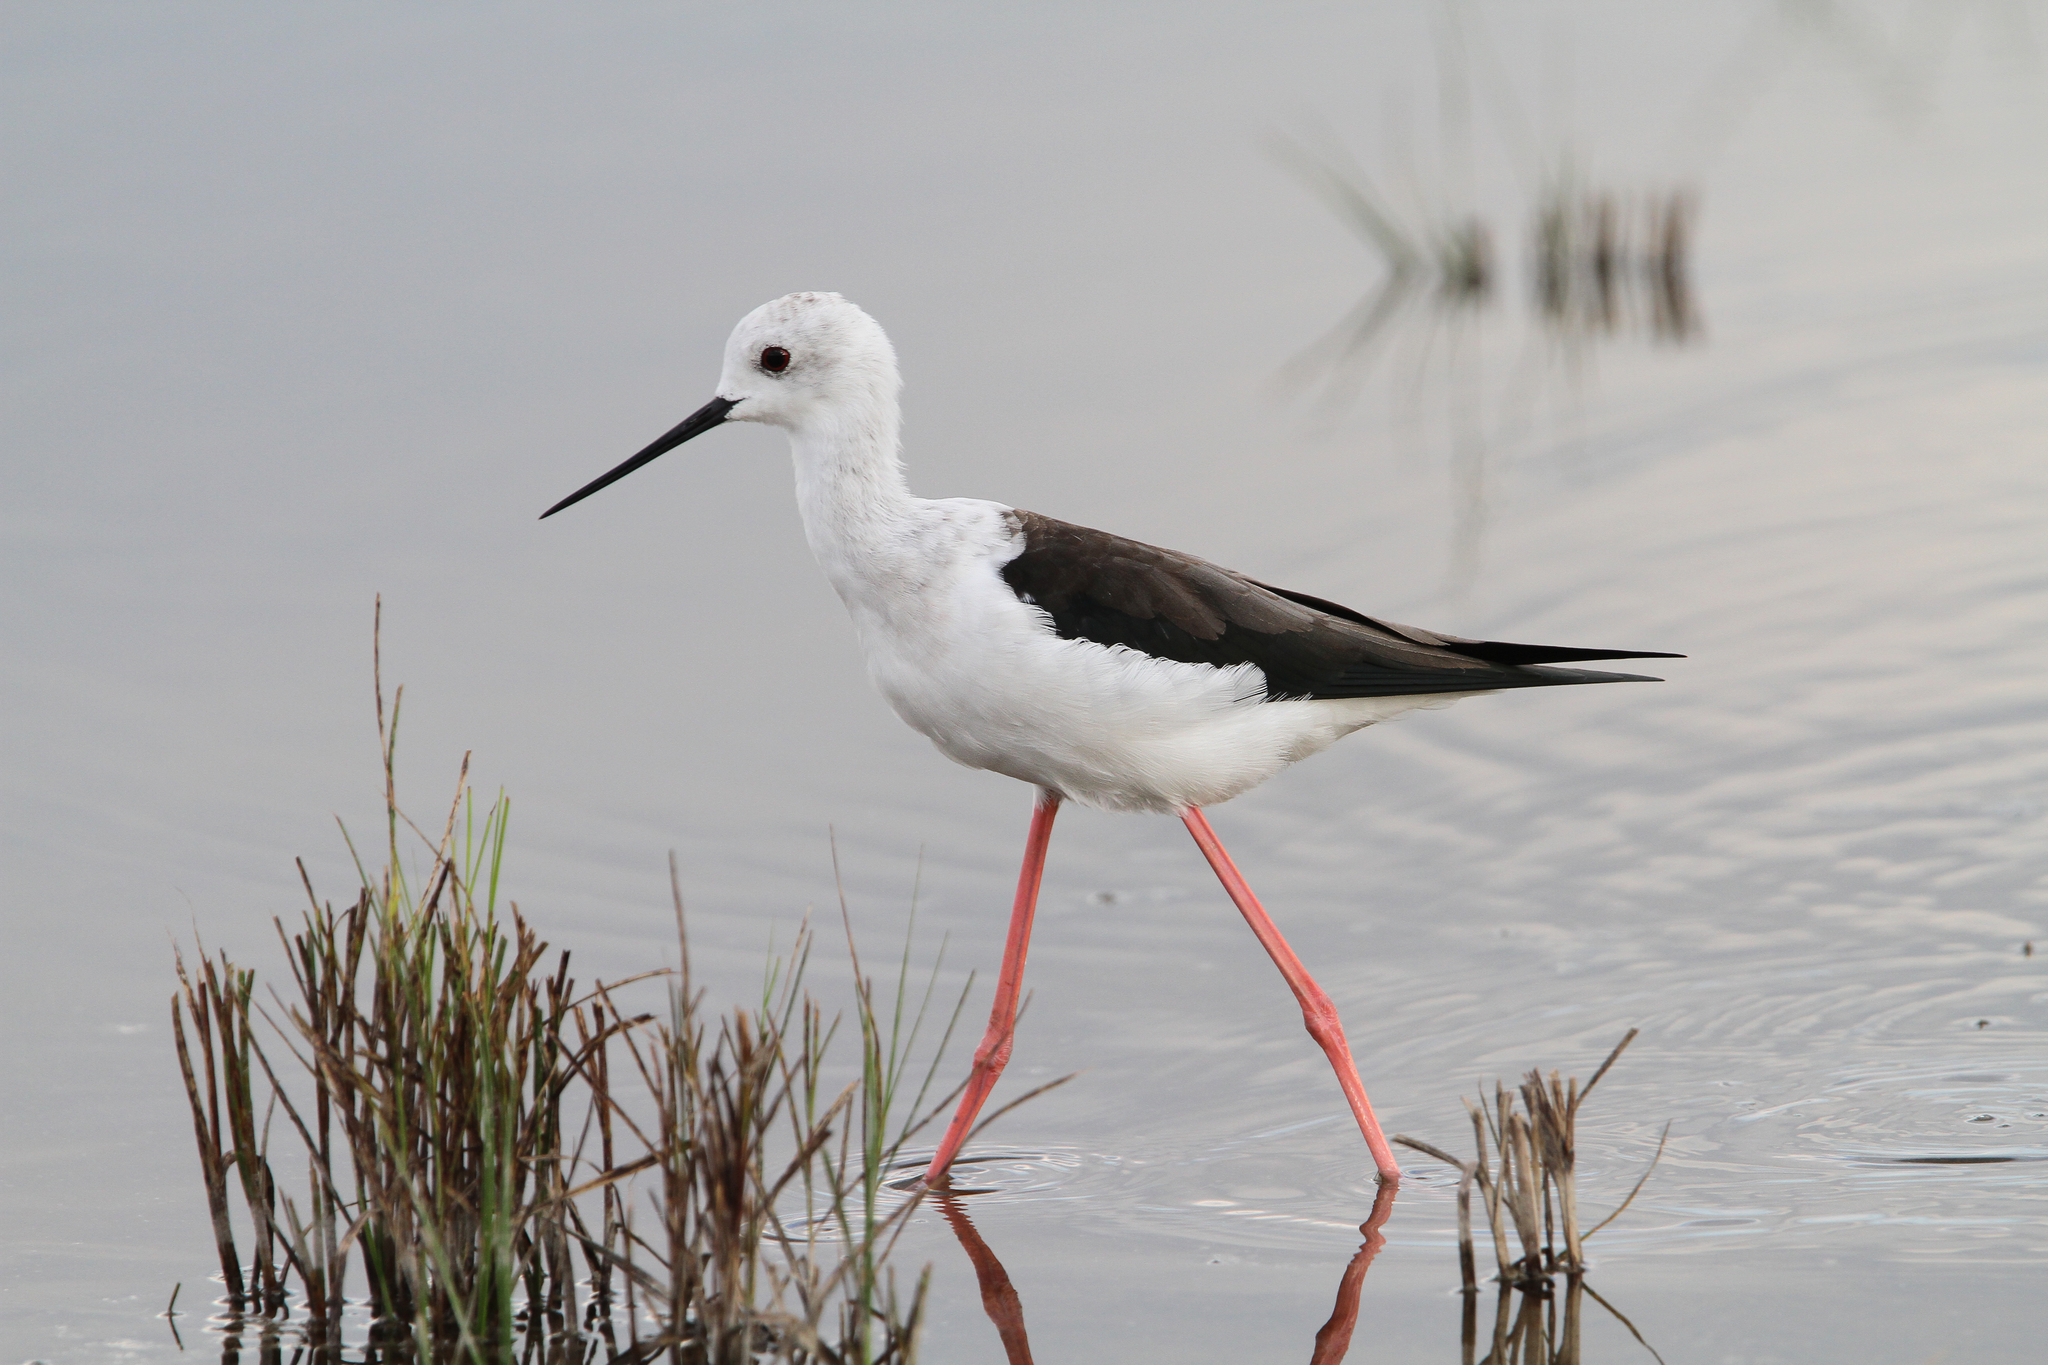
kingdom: Animalia
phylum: Chordata
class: Aves
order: Charadriiformes
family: Recurvirostridae
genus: Himantopus
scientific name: Himantopus himantopus
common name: Black-winged stilt
